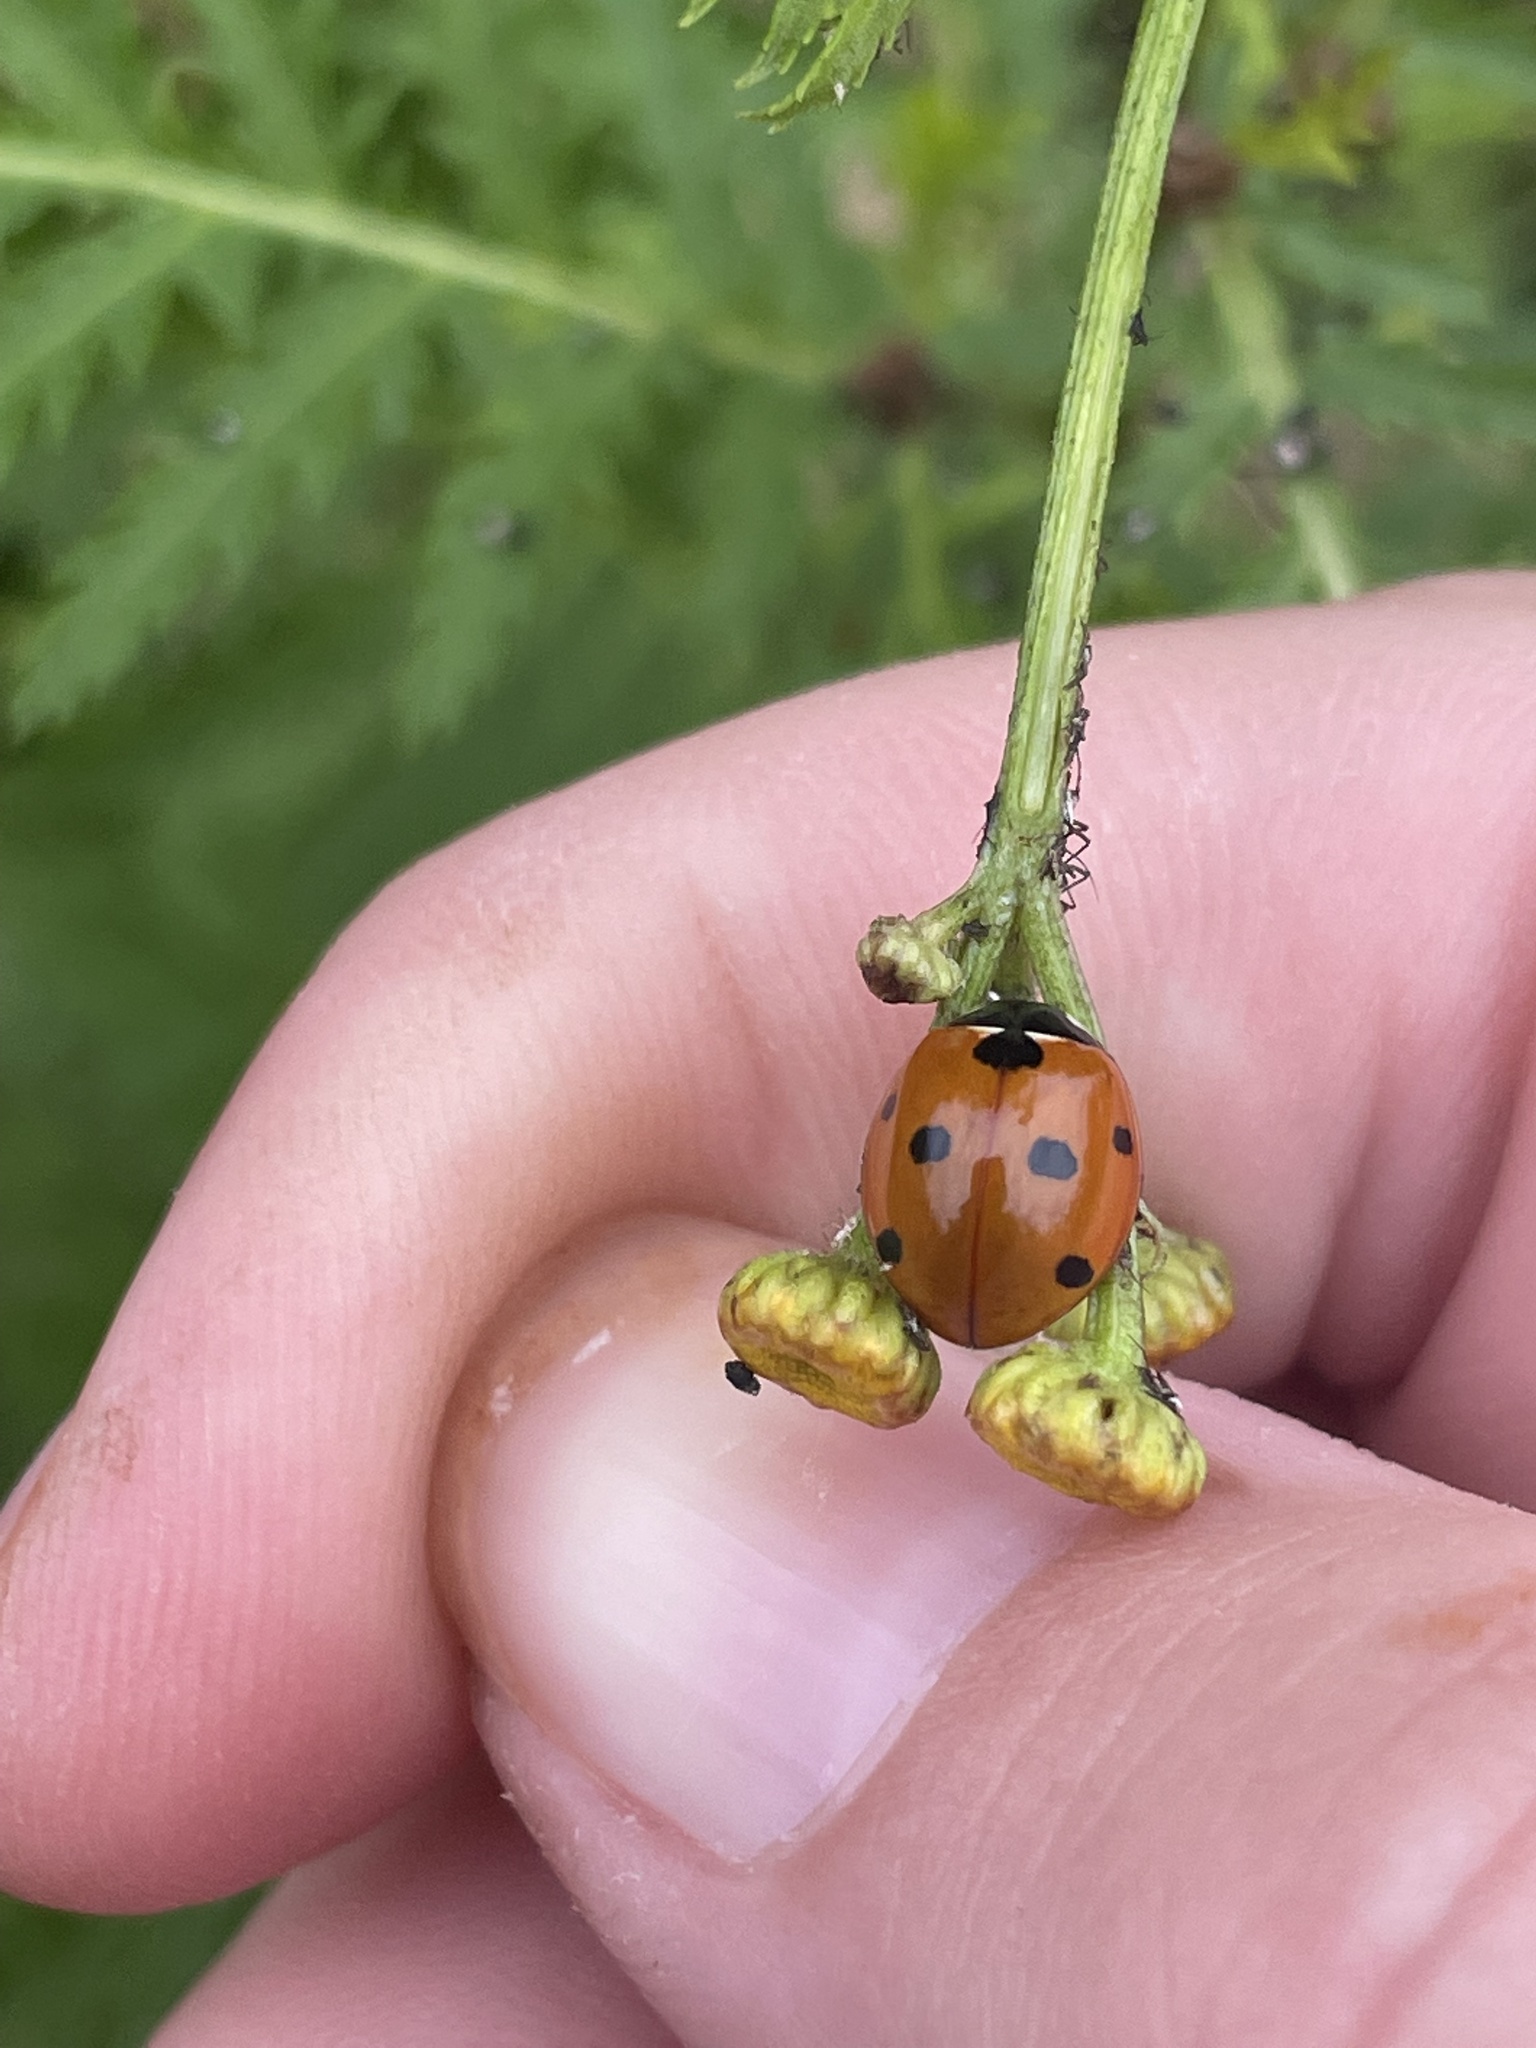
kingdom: Animalia
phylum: Arthropoda
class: Insecta
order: Coleoptera
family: Coccinellidae
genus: Coccinella
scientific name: Coccinella septempunctata
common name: Sevenspotted lady beetle
